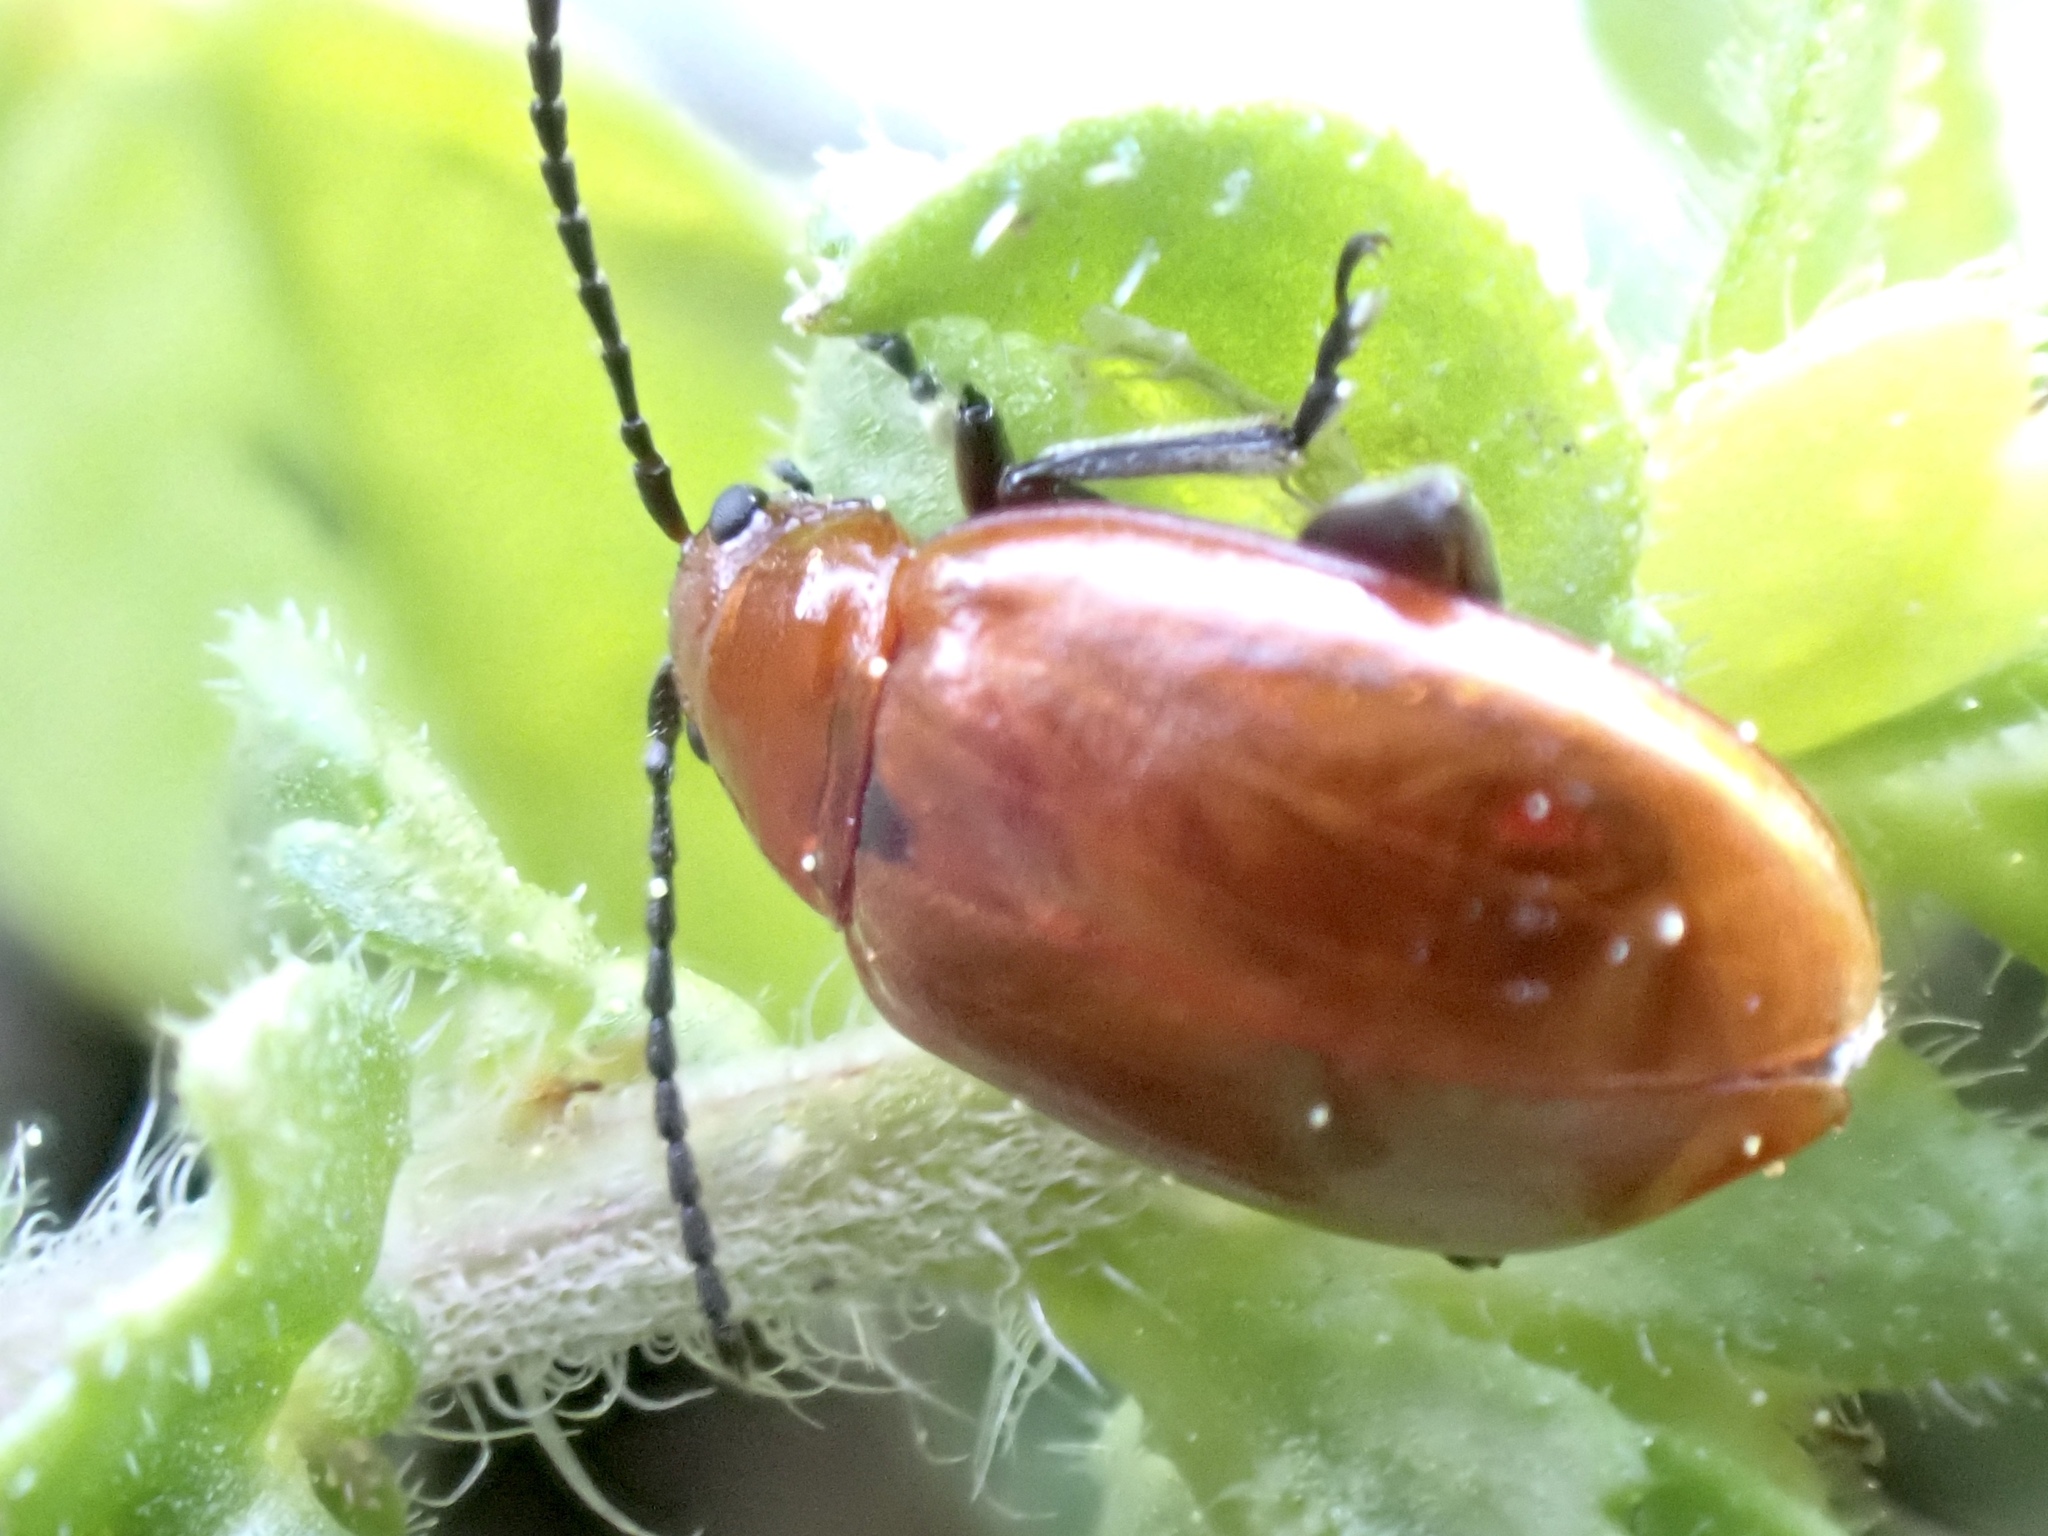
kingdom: Animalia
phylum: Arthropoda
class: Insecta
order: Coleoptera
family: Chrysomelidae
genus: Strabala
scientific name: Strabala rufa
